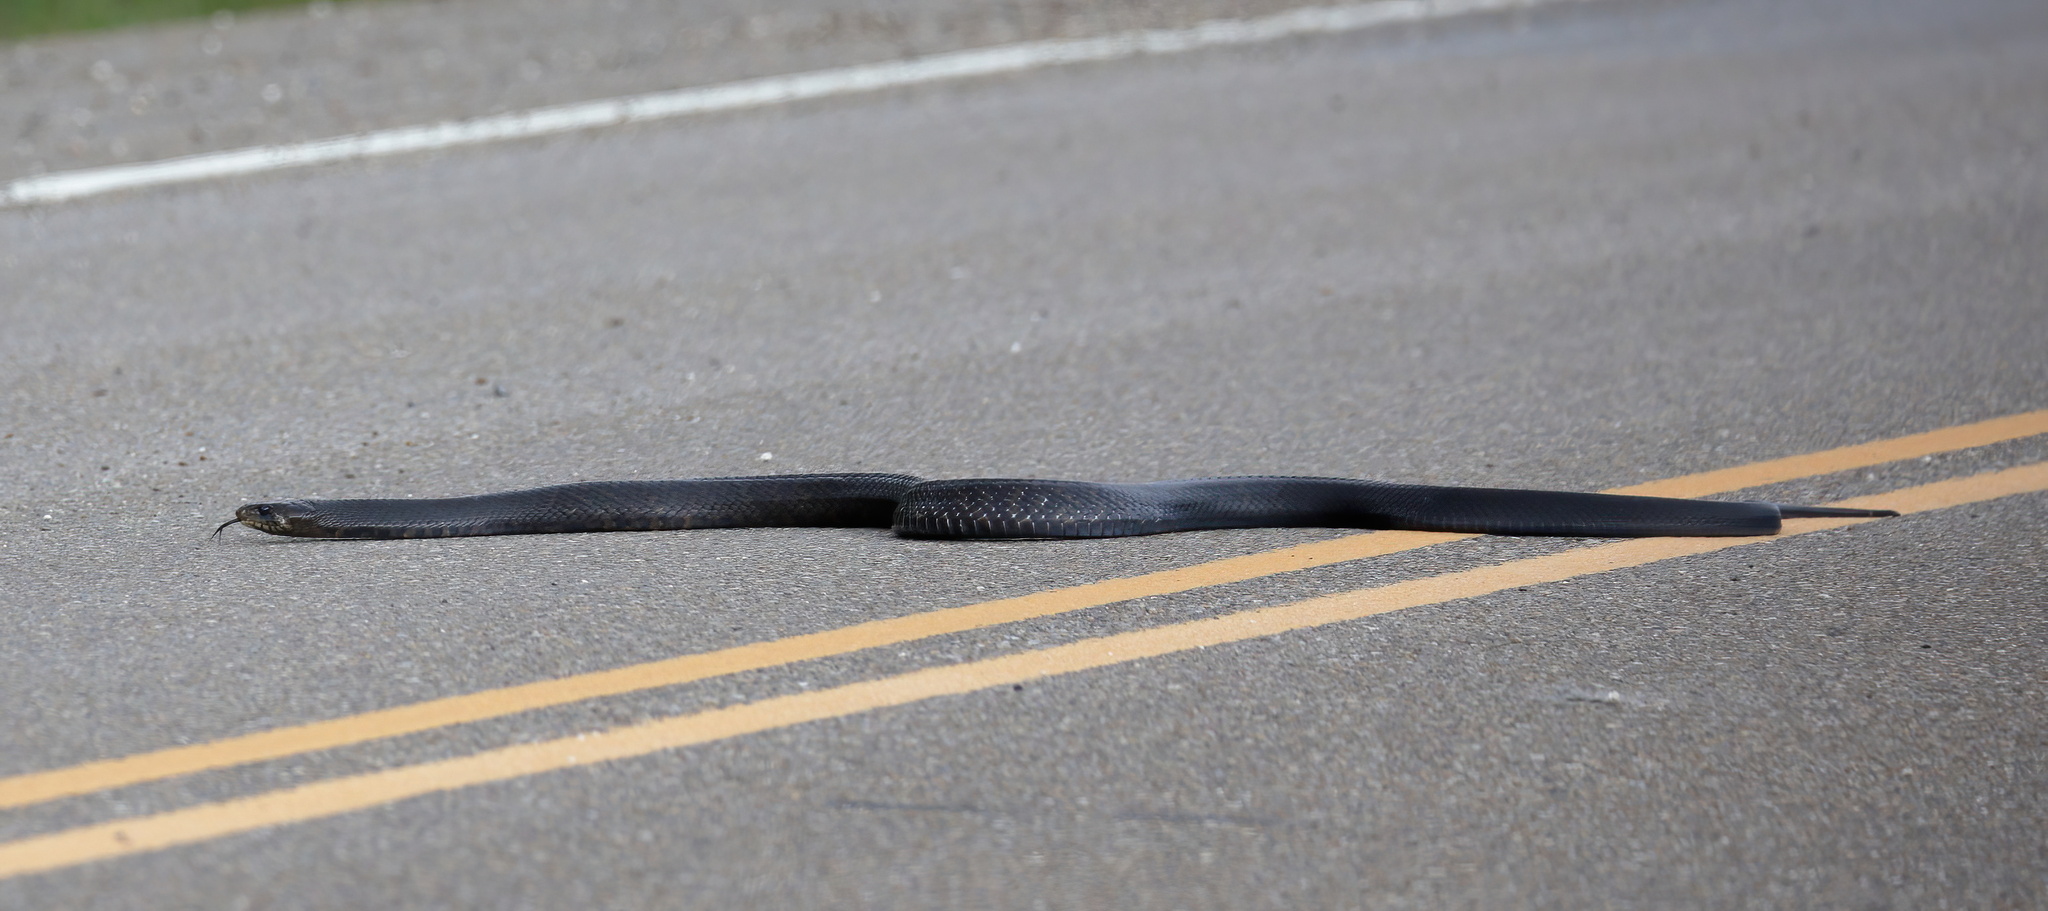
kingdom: Animalia
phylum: Chordata
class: Squamata
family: Colubridae
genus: Drymarchon
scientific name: Drymarchon melanurus
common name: Central american indigo snake
